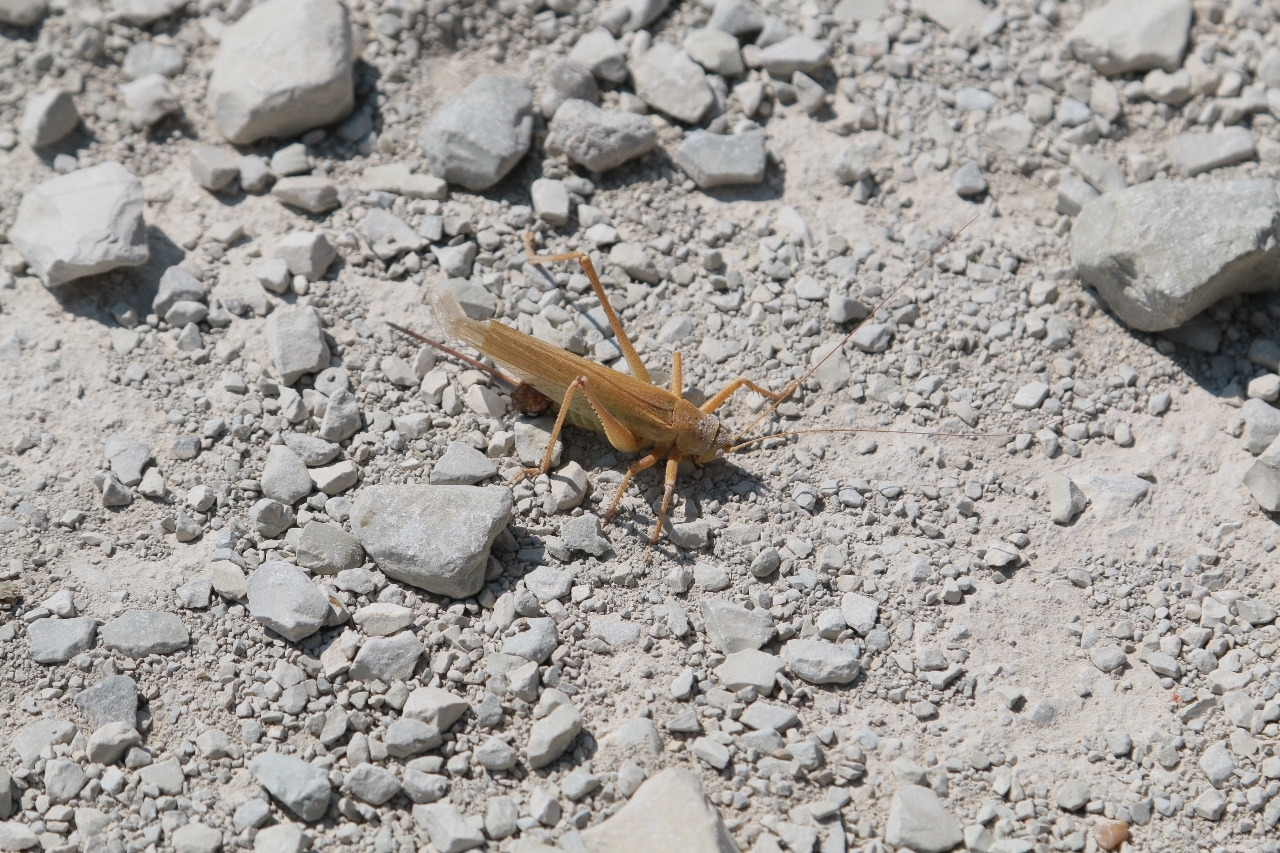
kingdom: Animalia
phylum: Arthropoda
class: Insecta
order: Orthoptera
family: Tettigoniidae
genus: Tettigonia
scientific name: Tettigonia caudata
